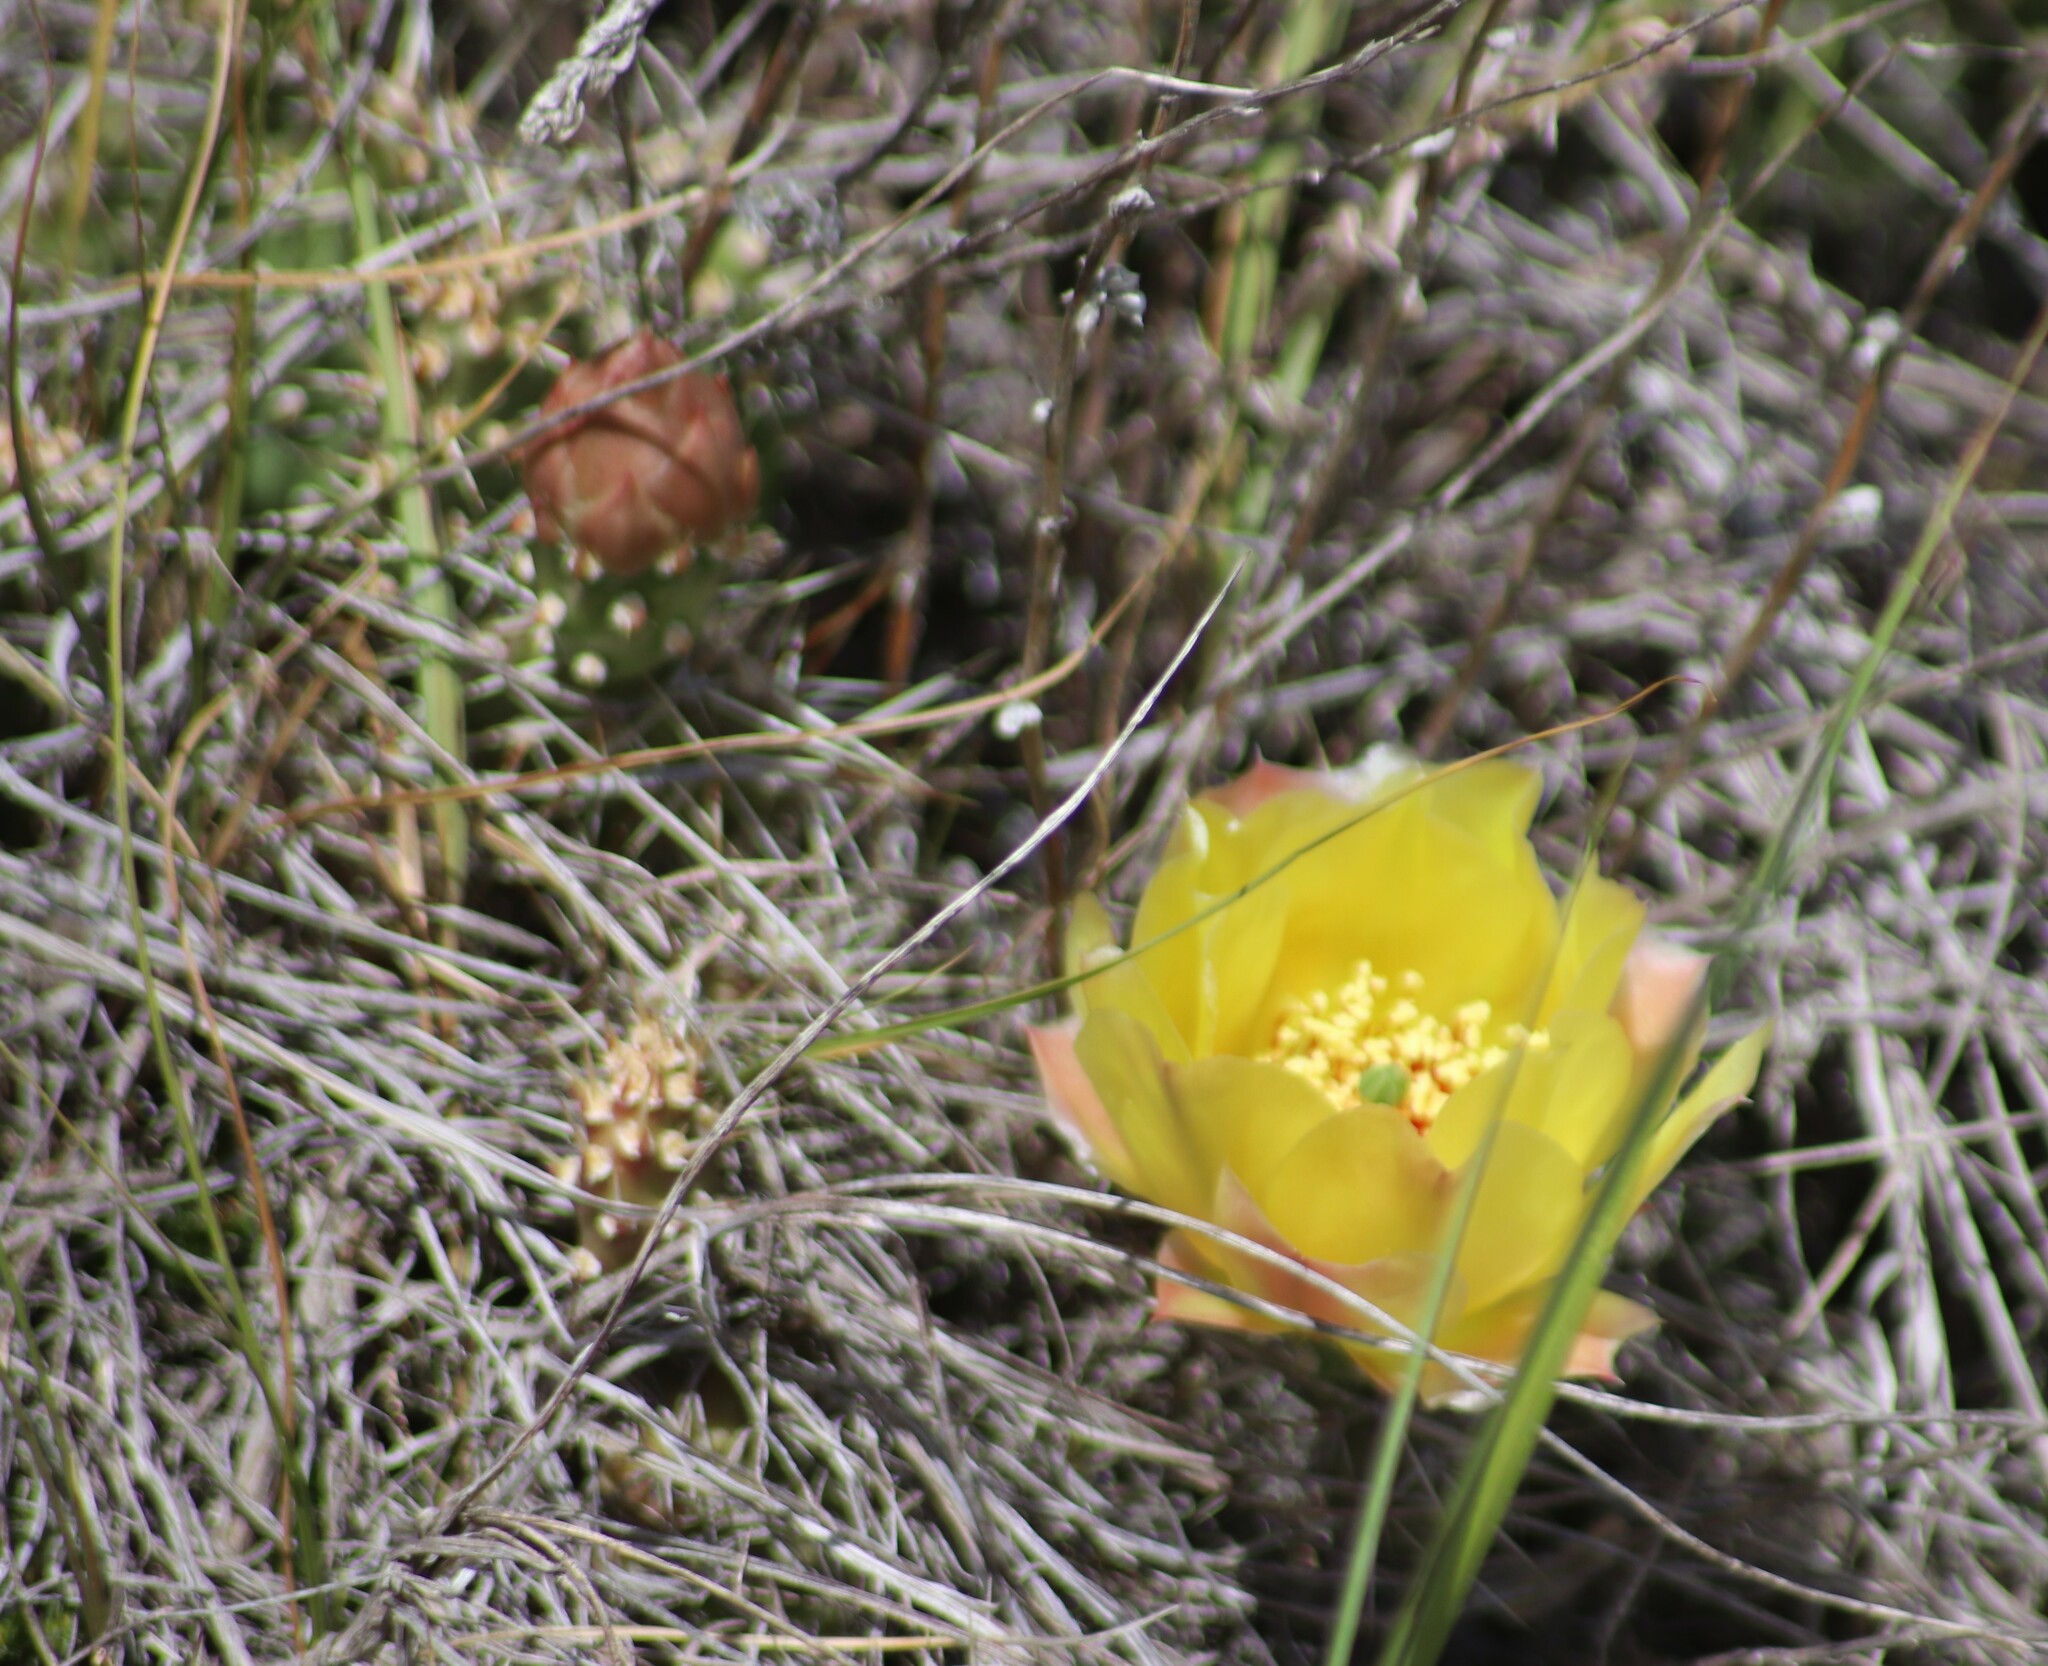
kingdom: Plantae
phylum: Tracheophyta
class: Magnoliopsida
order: Caryophyllales
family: Cactaceae
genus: Opuntia
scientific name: Opuntia fragilis
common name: Brittle cactus
